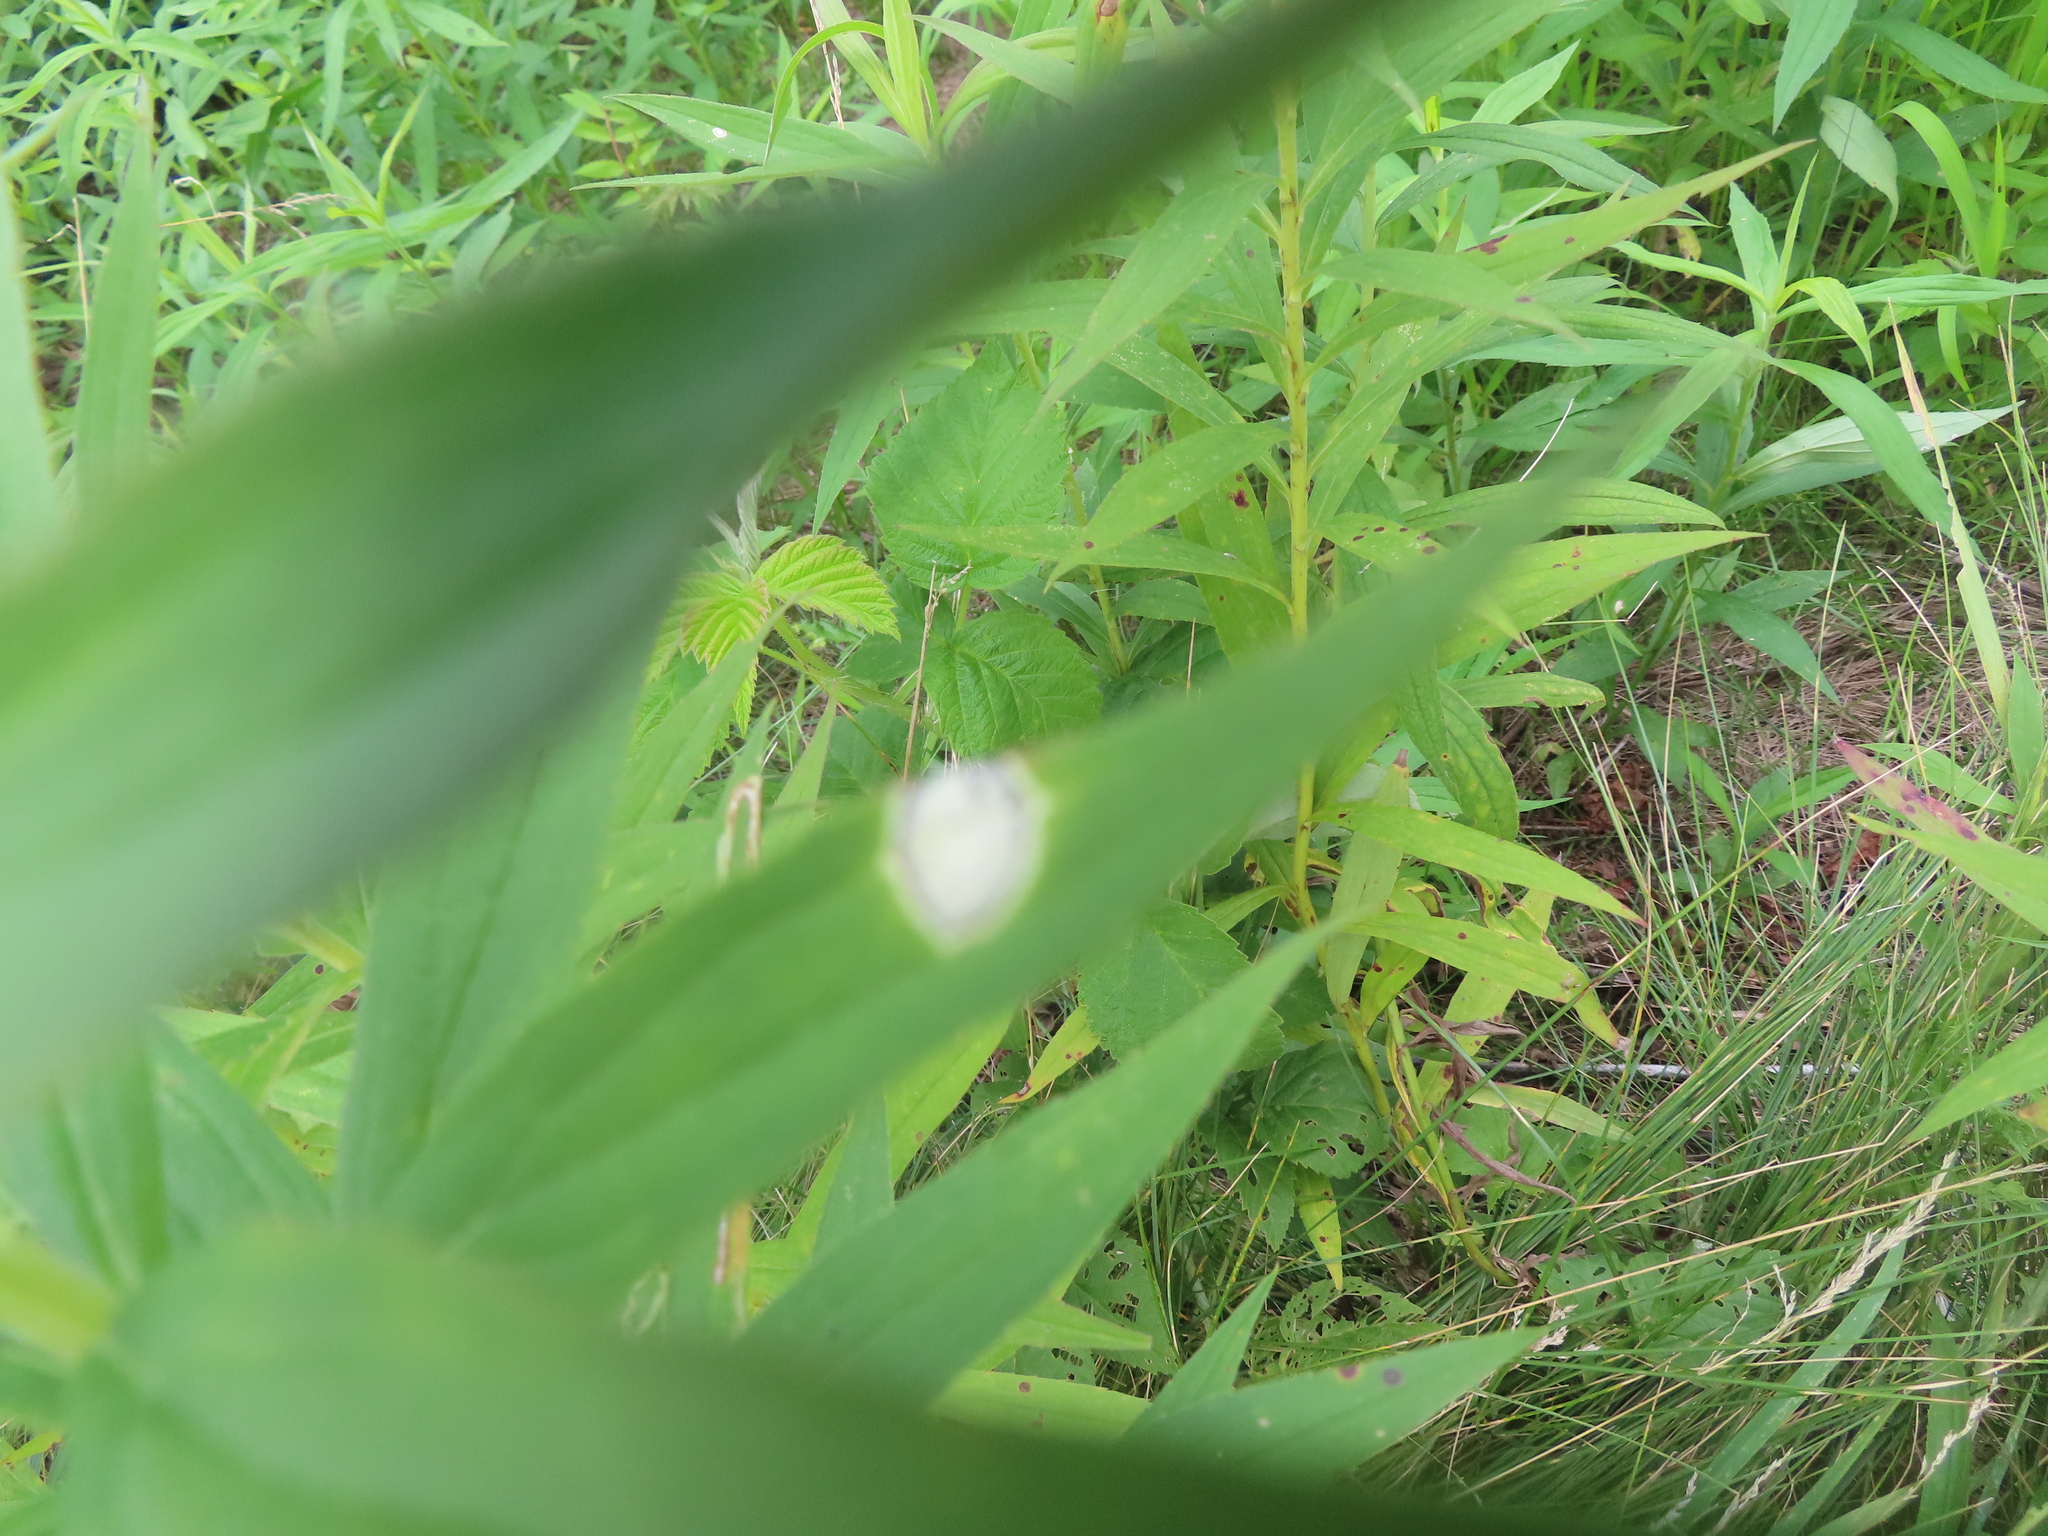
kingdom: Animalia
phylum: Arthropoda
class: Insecta
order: Diptera
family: Cecidomyiidae
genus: Asteromyia
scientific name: Asteromyia carbonifera
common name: Carbonifera goldenrod gall midge
